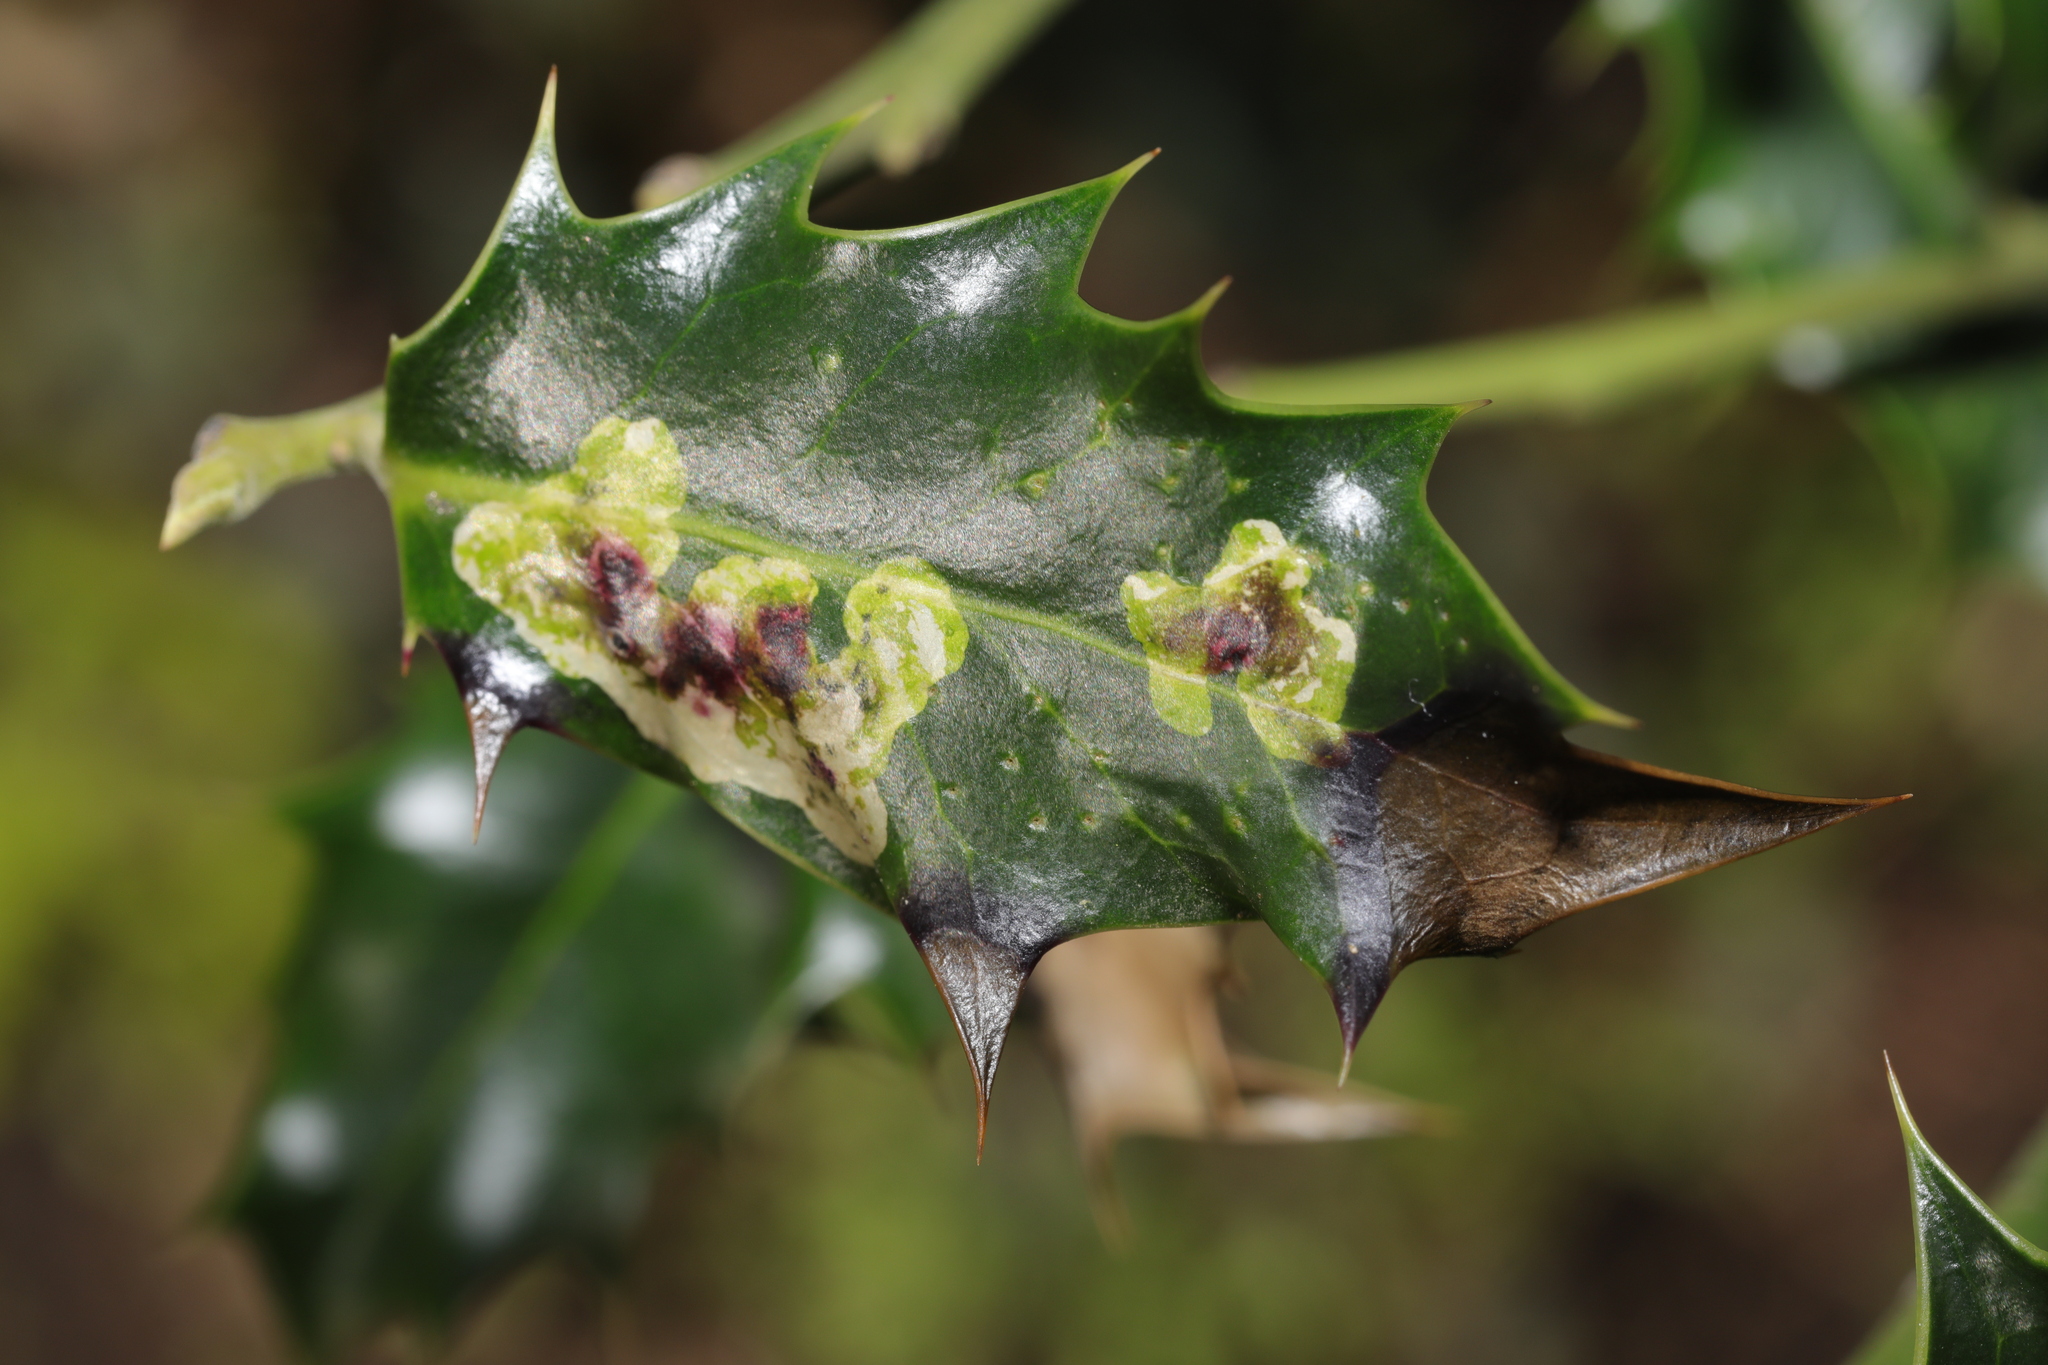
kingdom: Animalia
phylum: Arthropoda
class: Insecta
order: Diptera
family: Agromyzidae
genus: Phytomyza
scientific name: Phytomyza ilicis
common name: Holly leafminer
